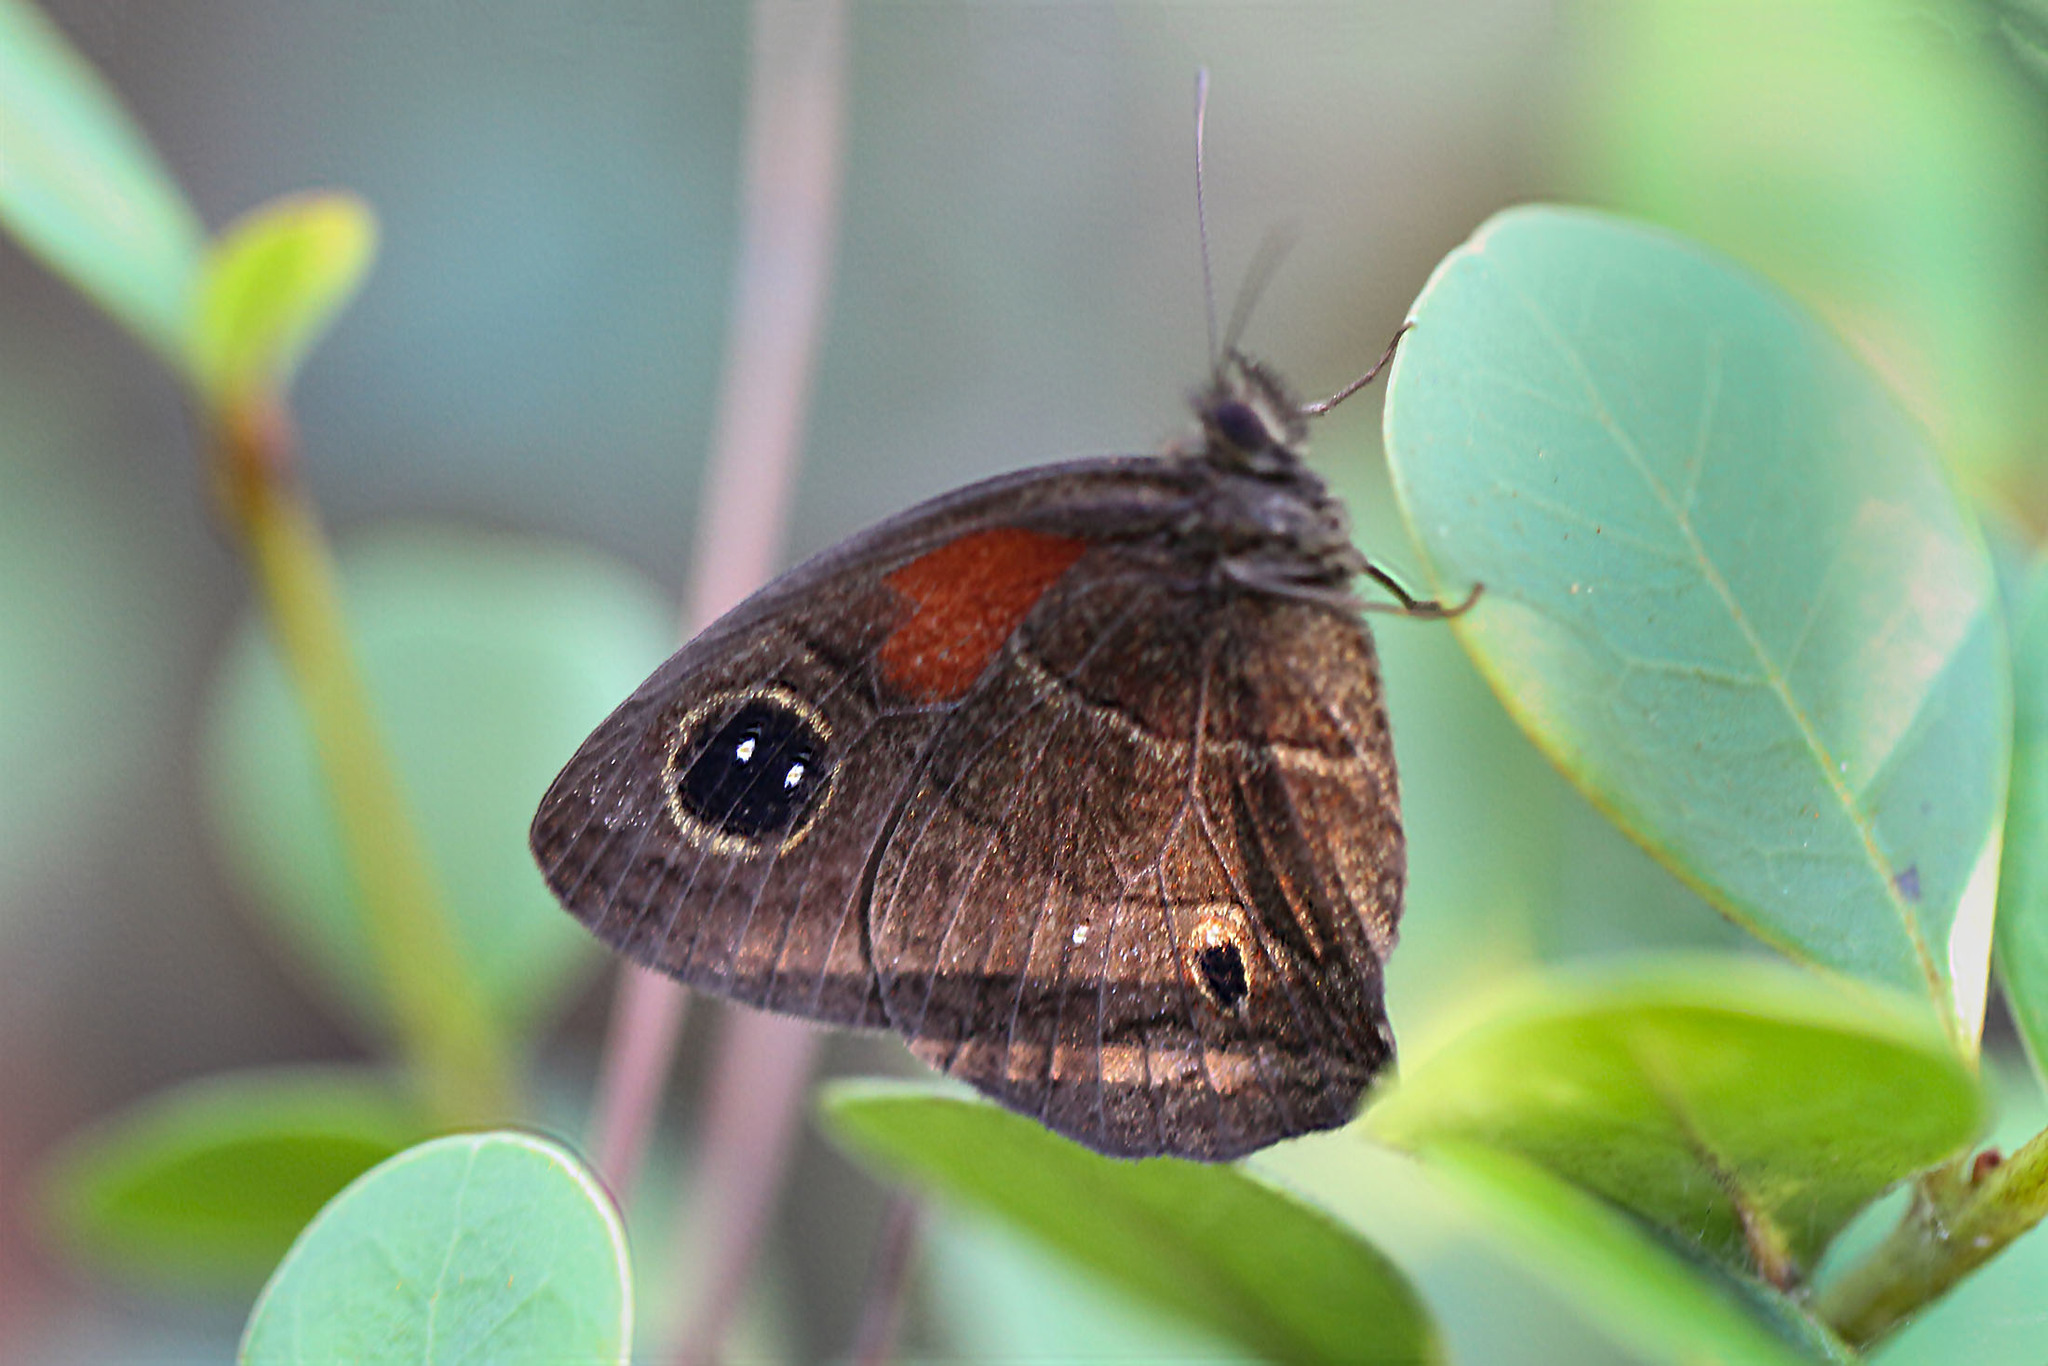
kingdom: Animalia
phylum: Arthropoda
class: Insecta
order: Lepidoptera
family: Nymphalidae
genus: Calisto
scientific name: Calisto hysius
